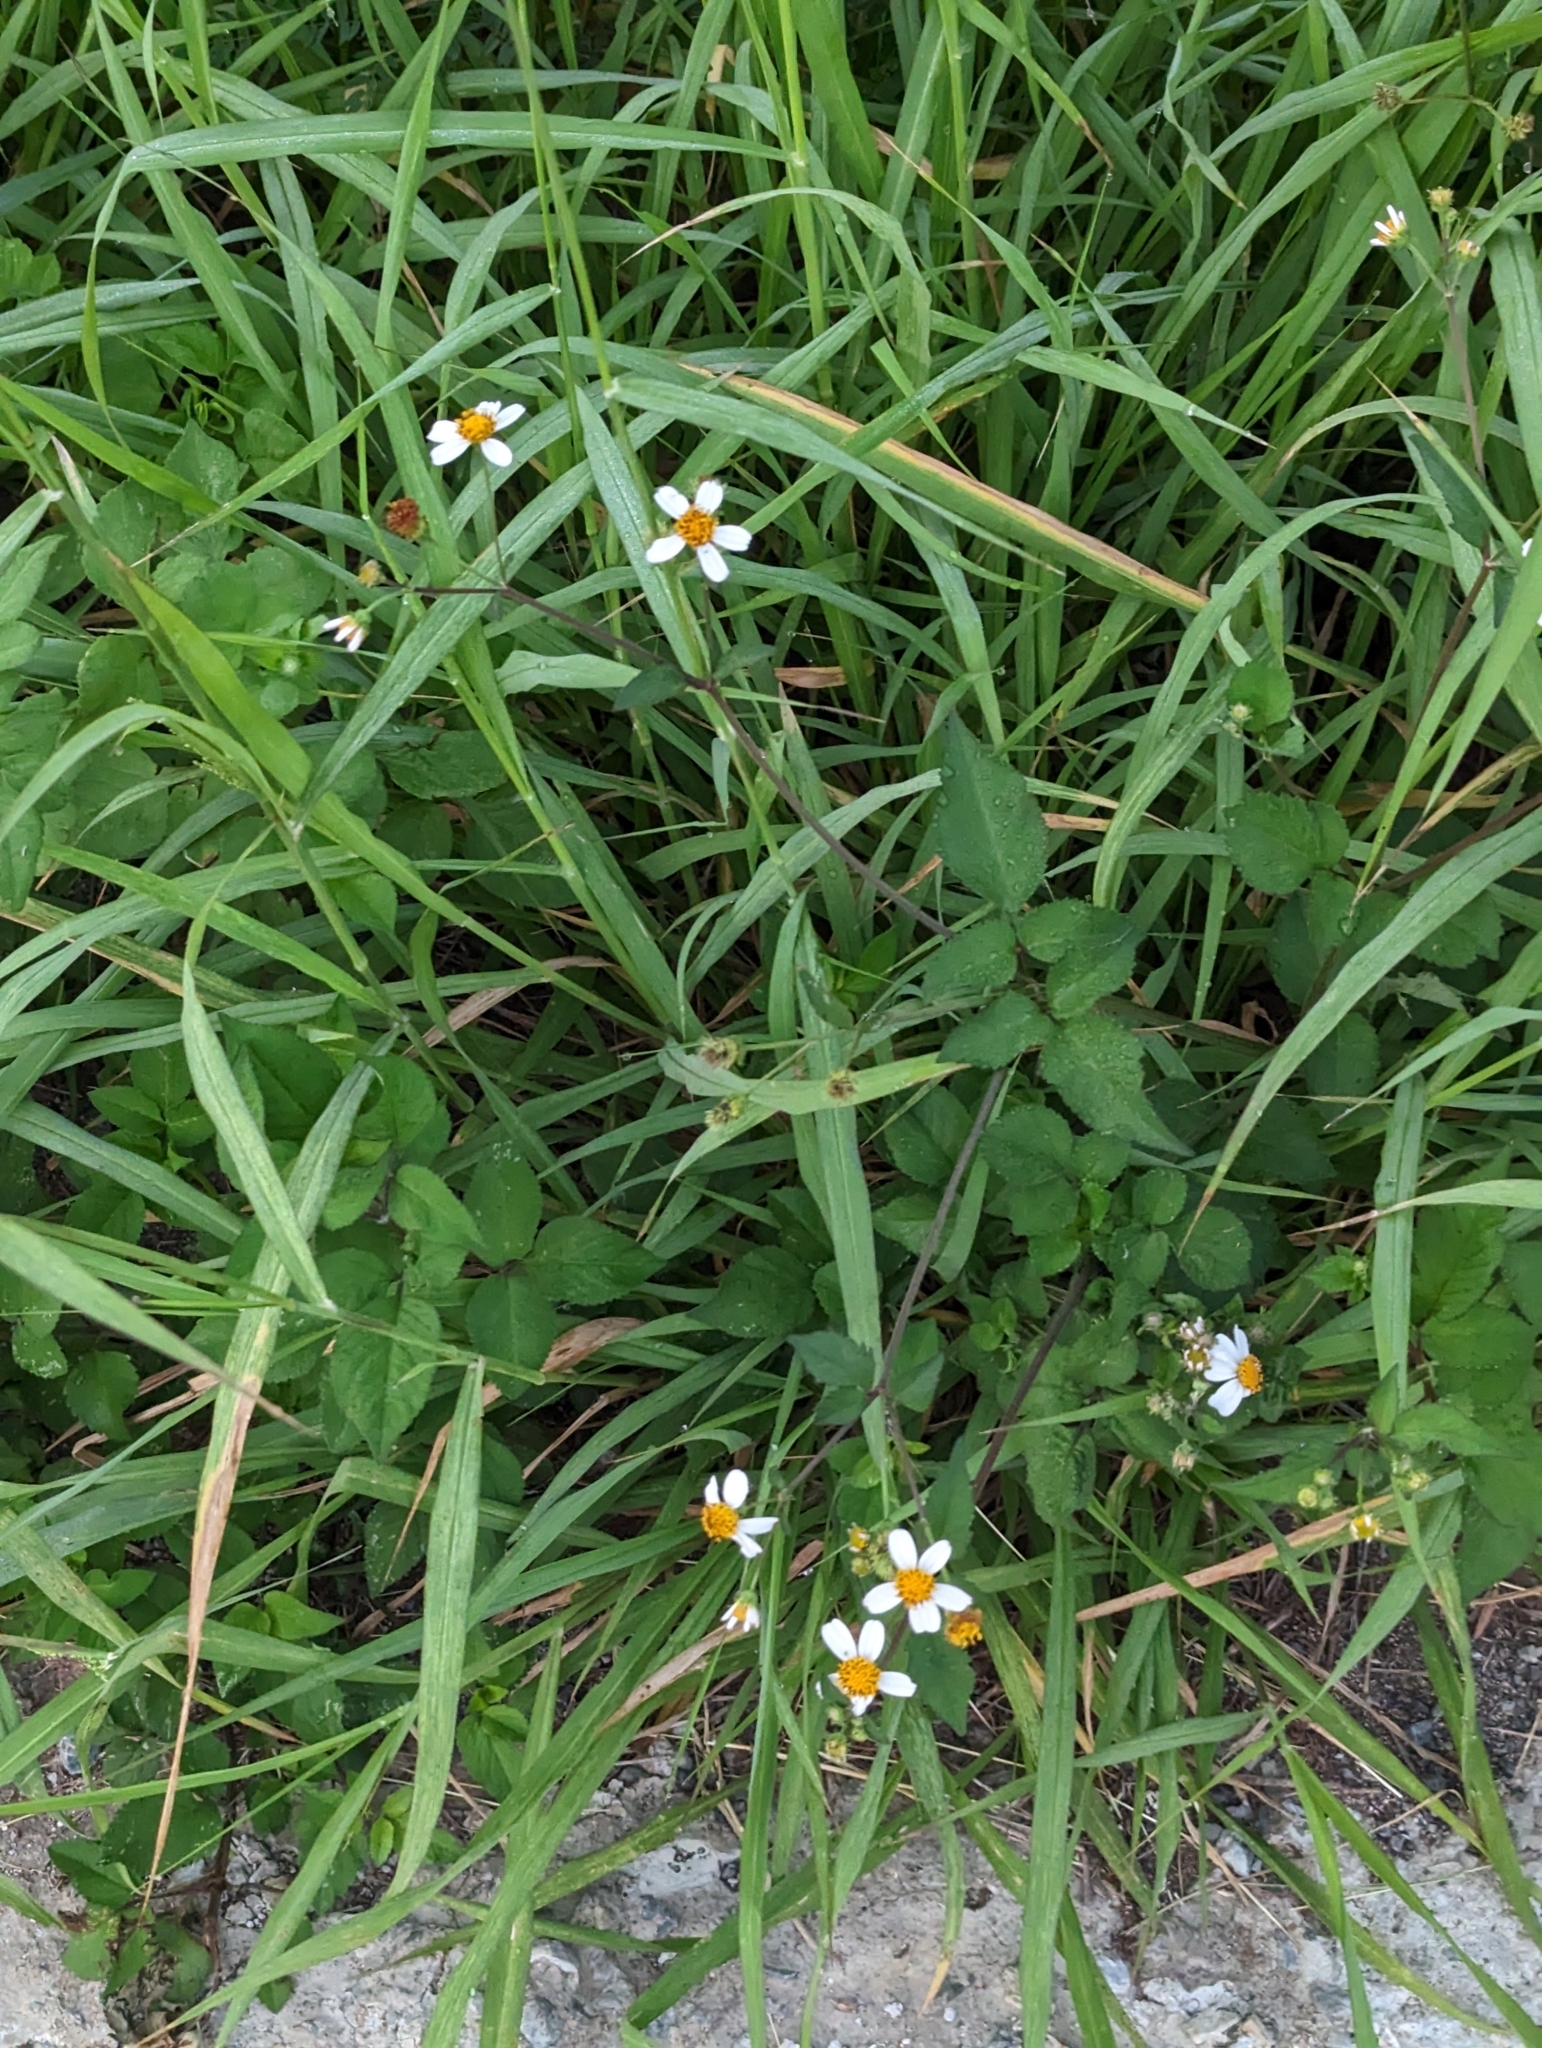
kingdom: Plantae
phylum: Tracheophyta
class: Magnoliopsida
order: Asterales
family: Asteraceae
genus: Bidens
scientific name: Bidens alba
